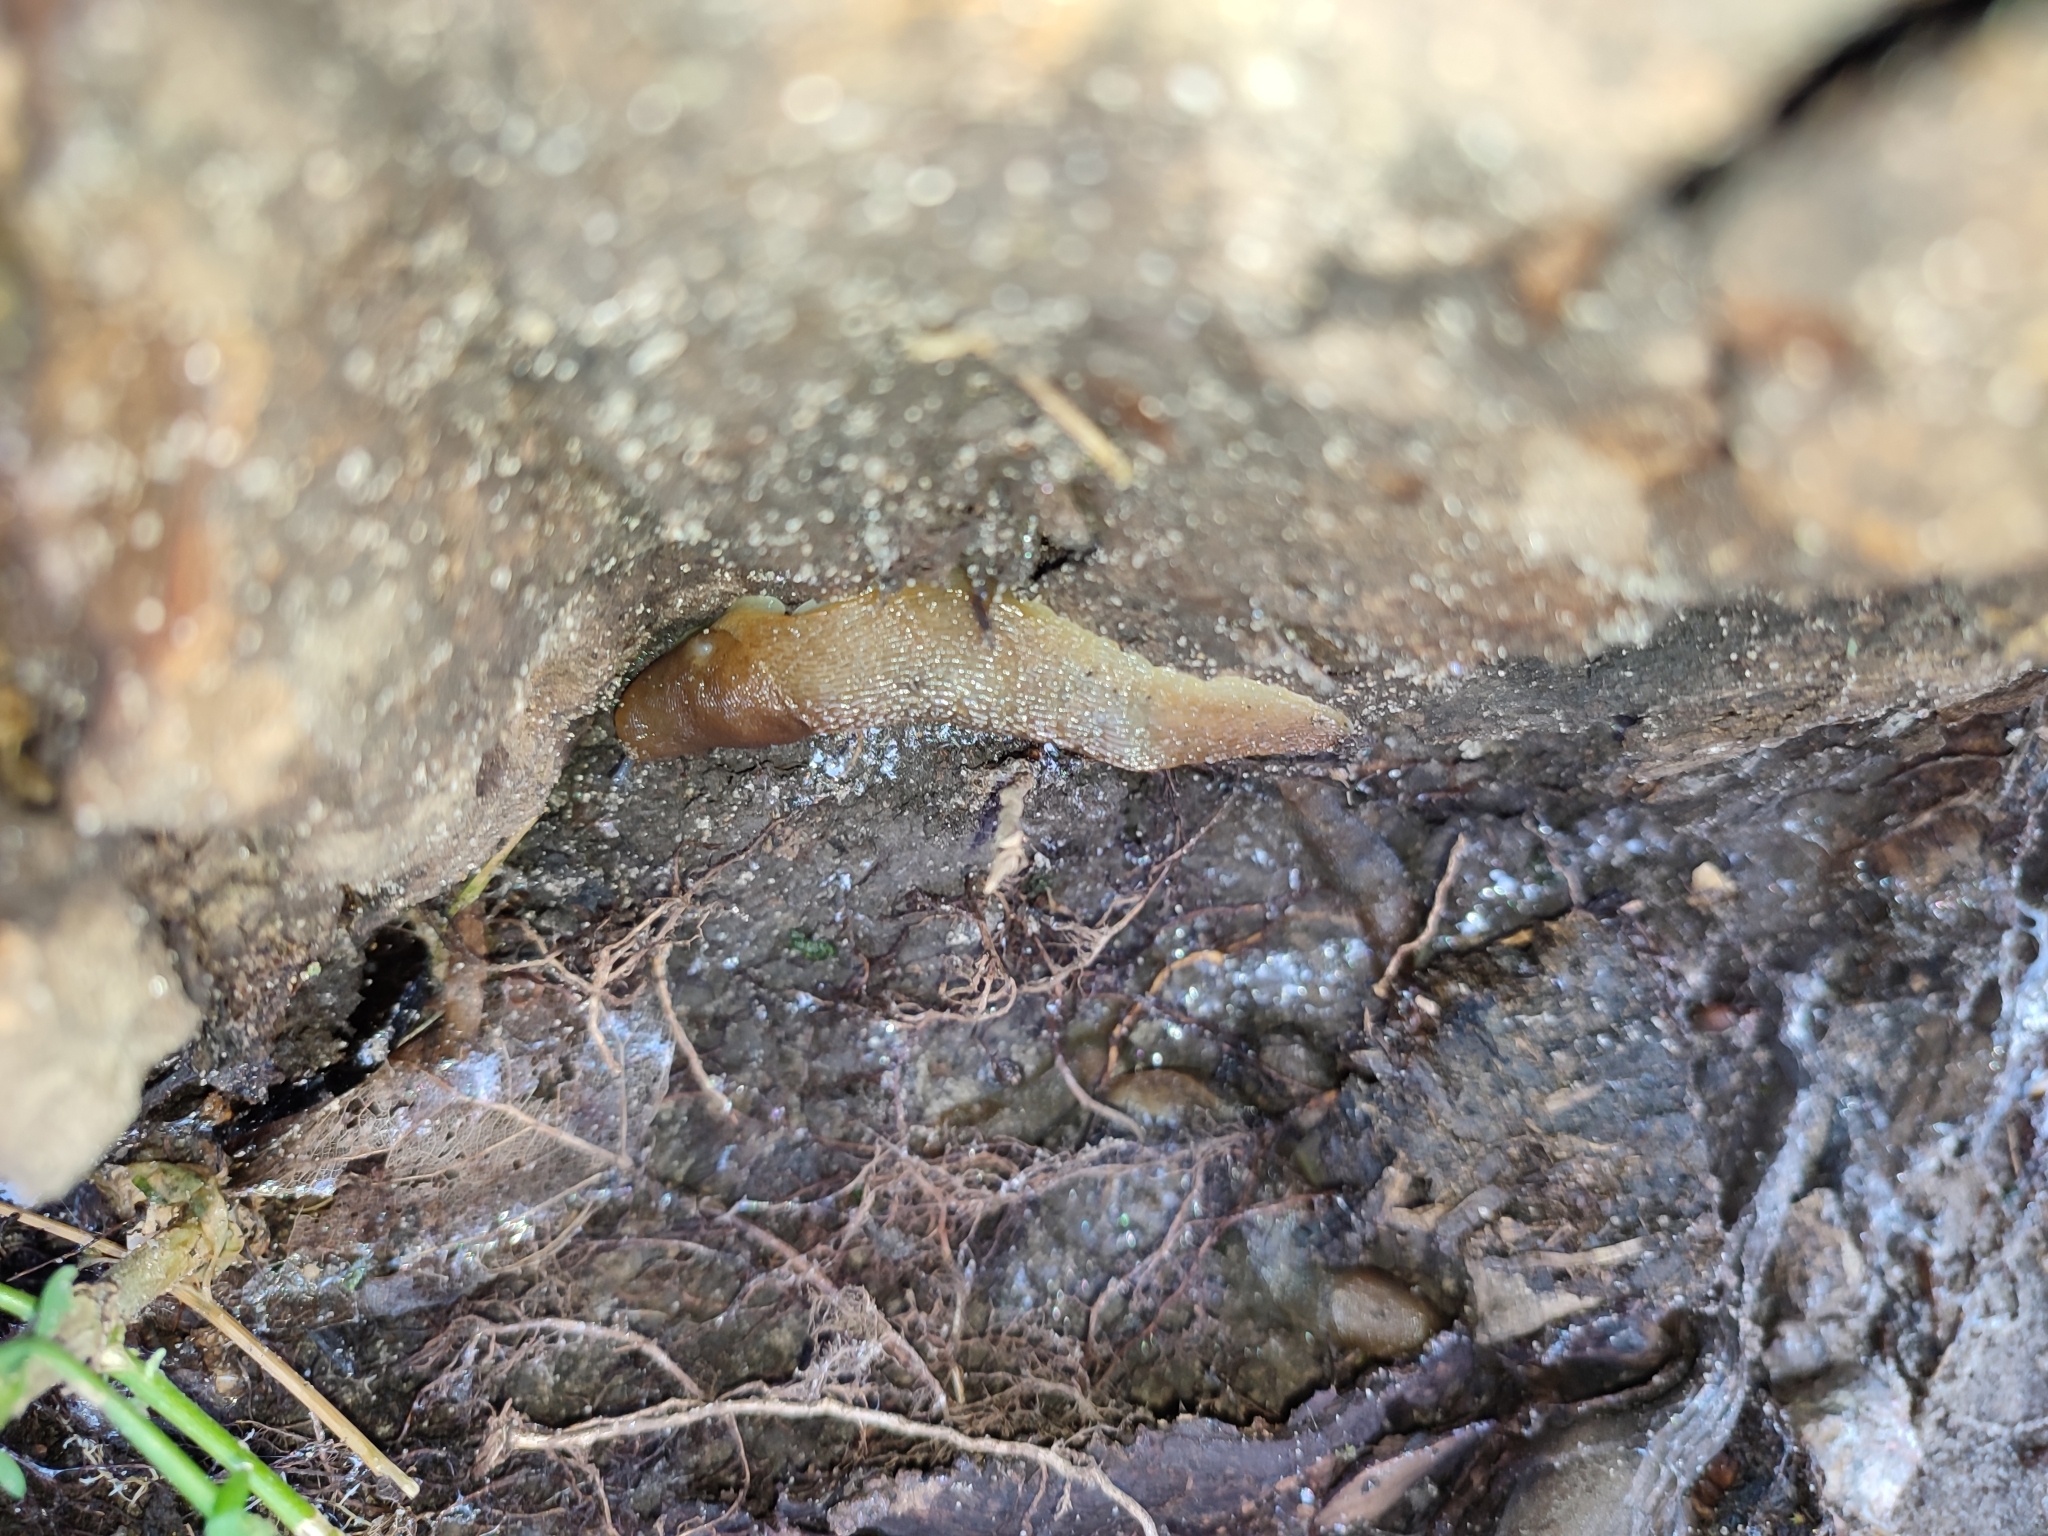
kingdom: Animalia
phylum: Mollusca
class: Gastropoda
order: Stylommatophora
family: Limacidae
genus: Limacus
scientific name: Limacus flavus
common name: Yellow gardenslug
